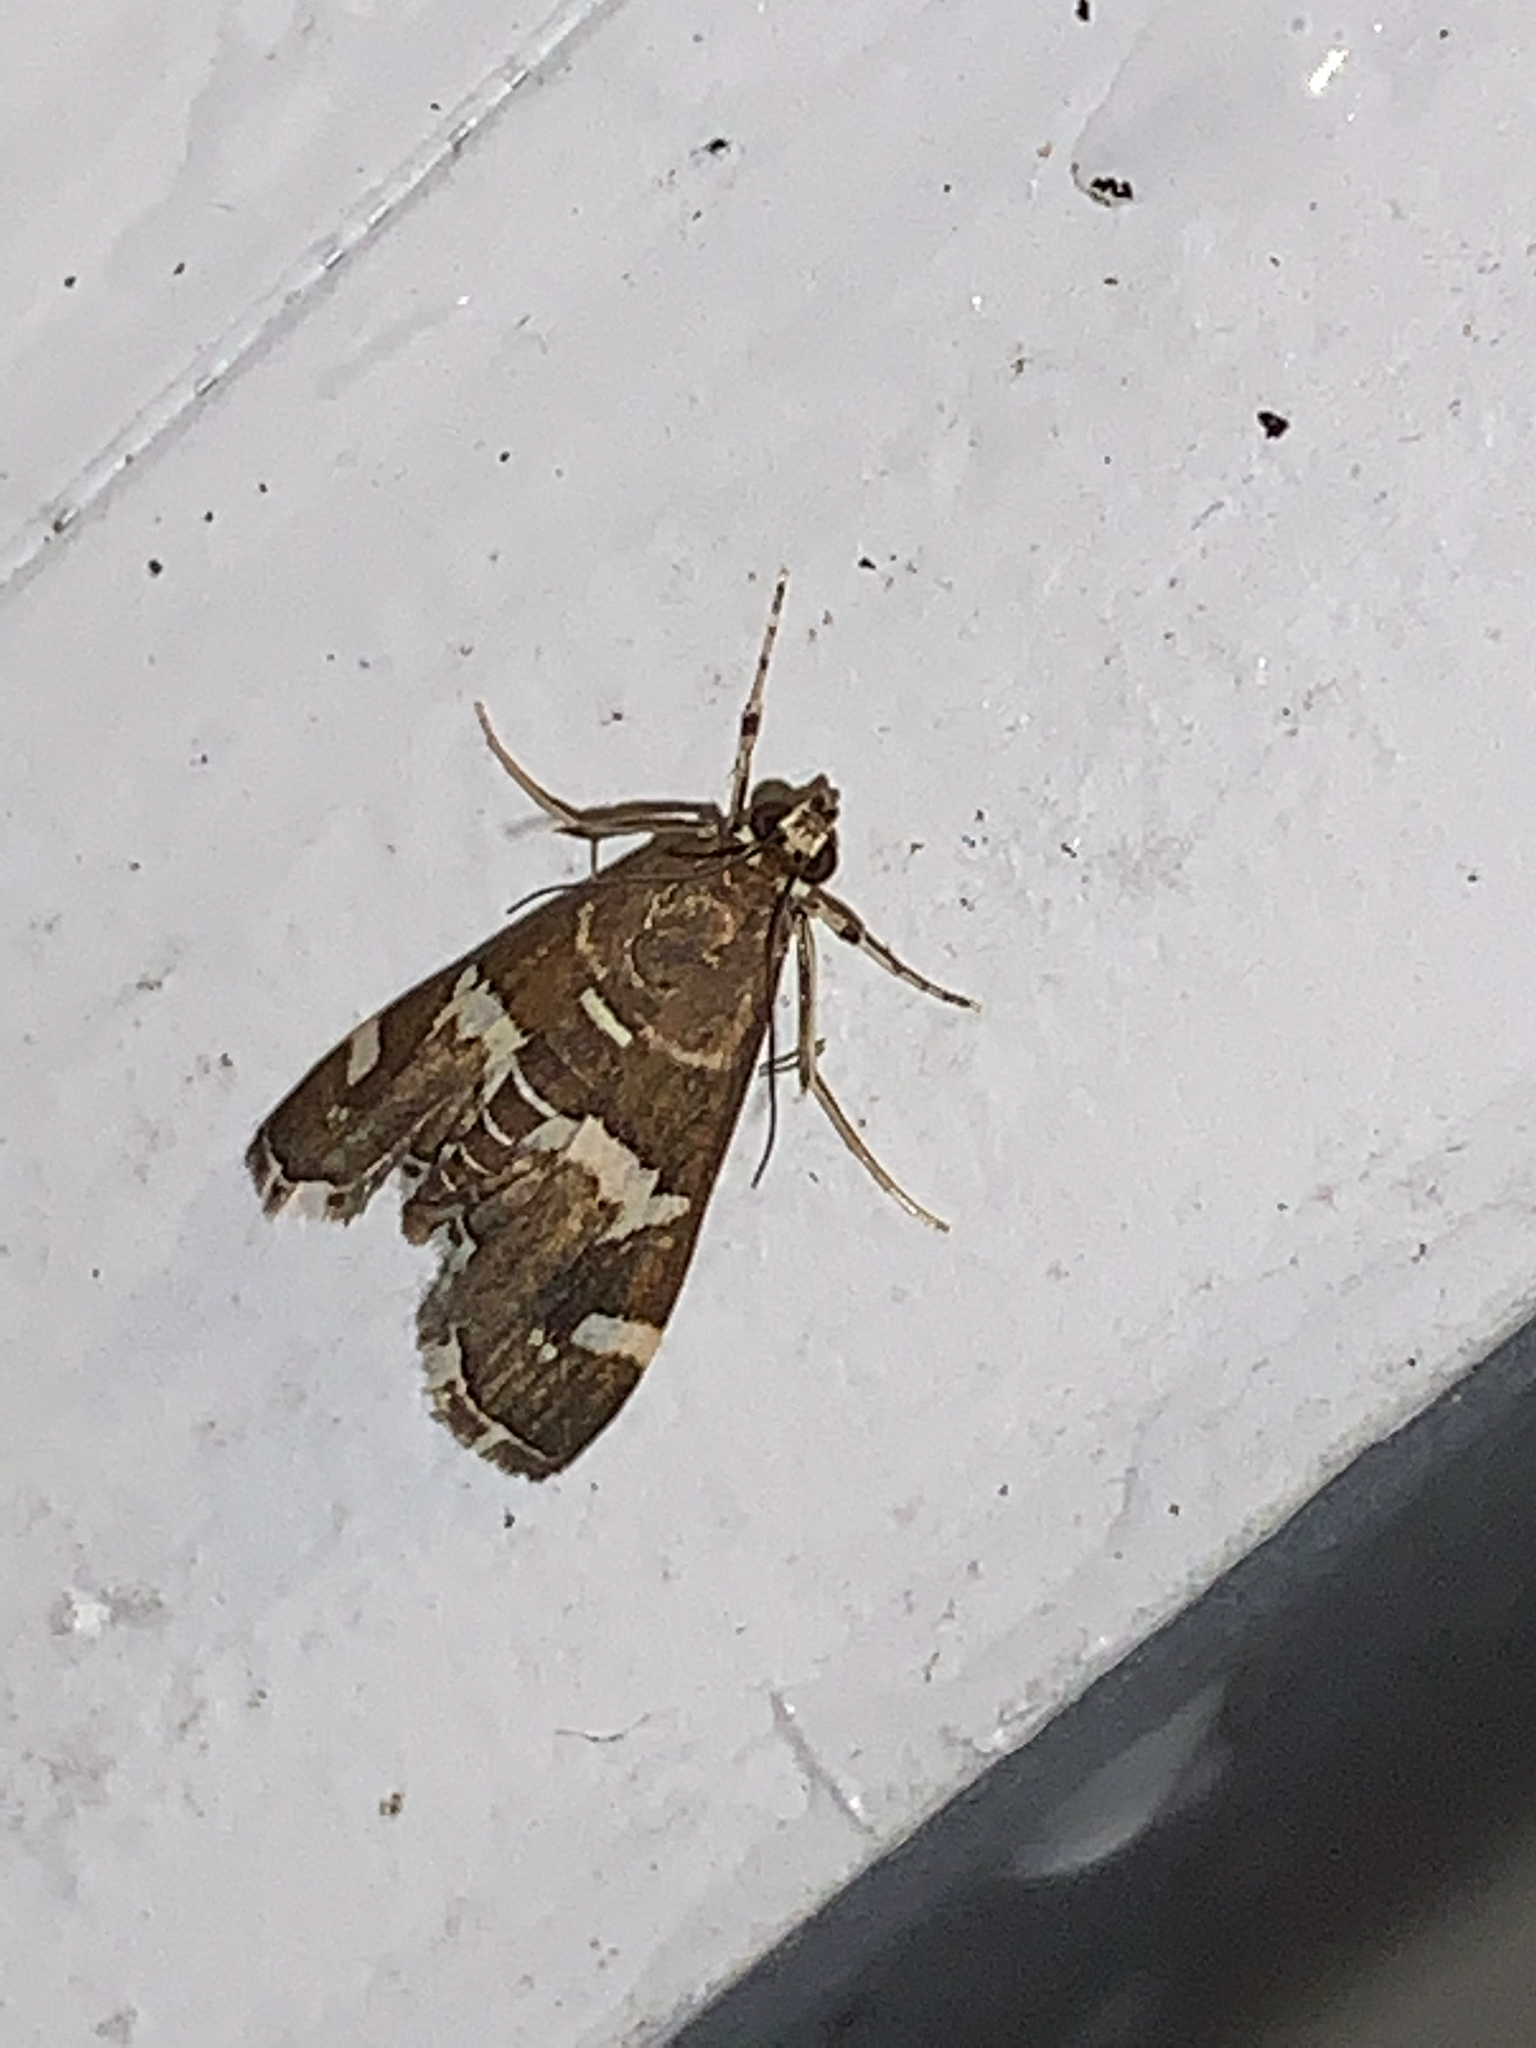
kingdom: Animalia
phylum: Arthropoda
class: Insecta
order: Lepidoptera
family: Crambidae
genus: Spoladea
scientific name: Spoladea recurvalis
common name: Beet webworm moth
